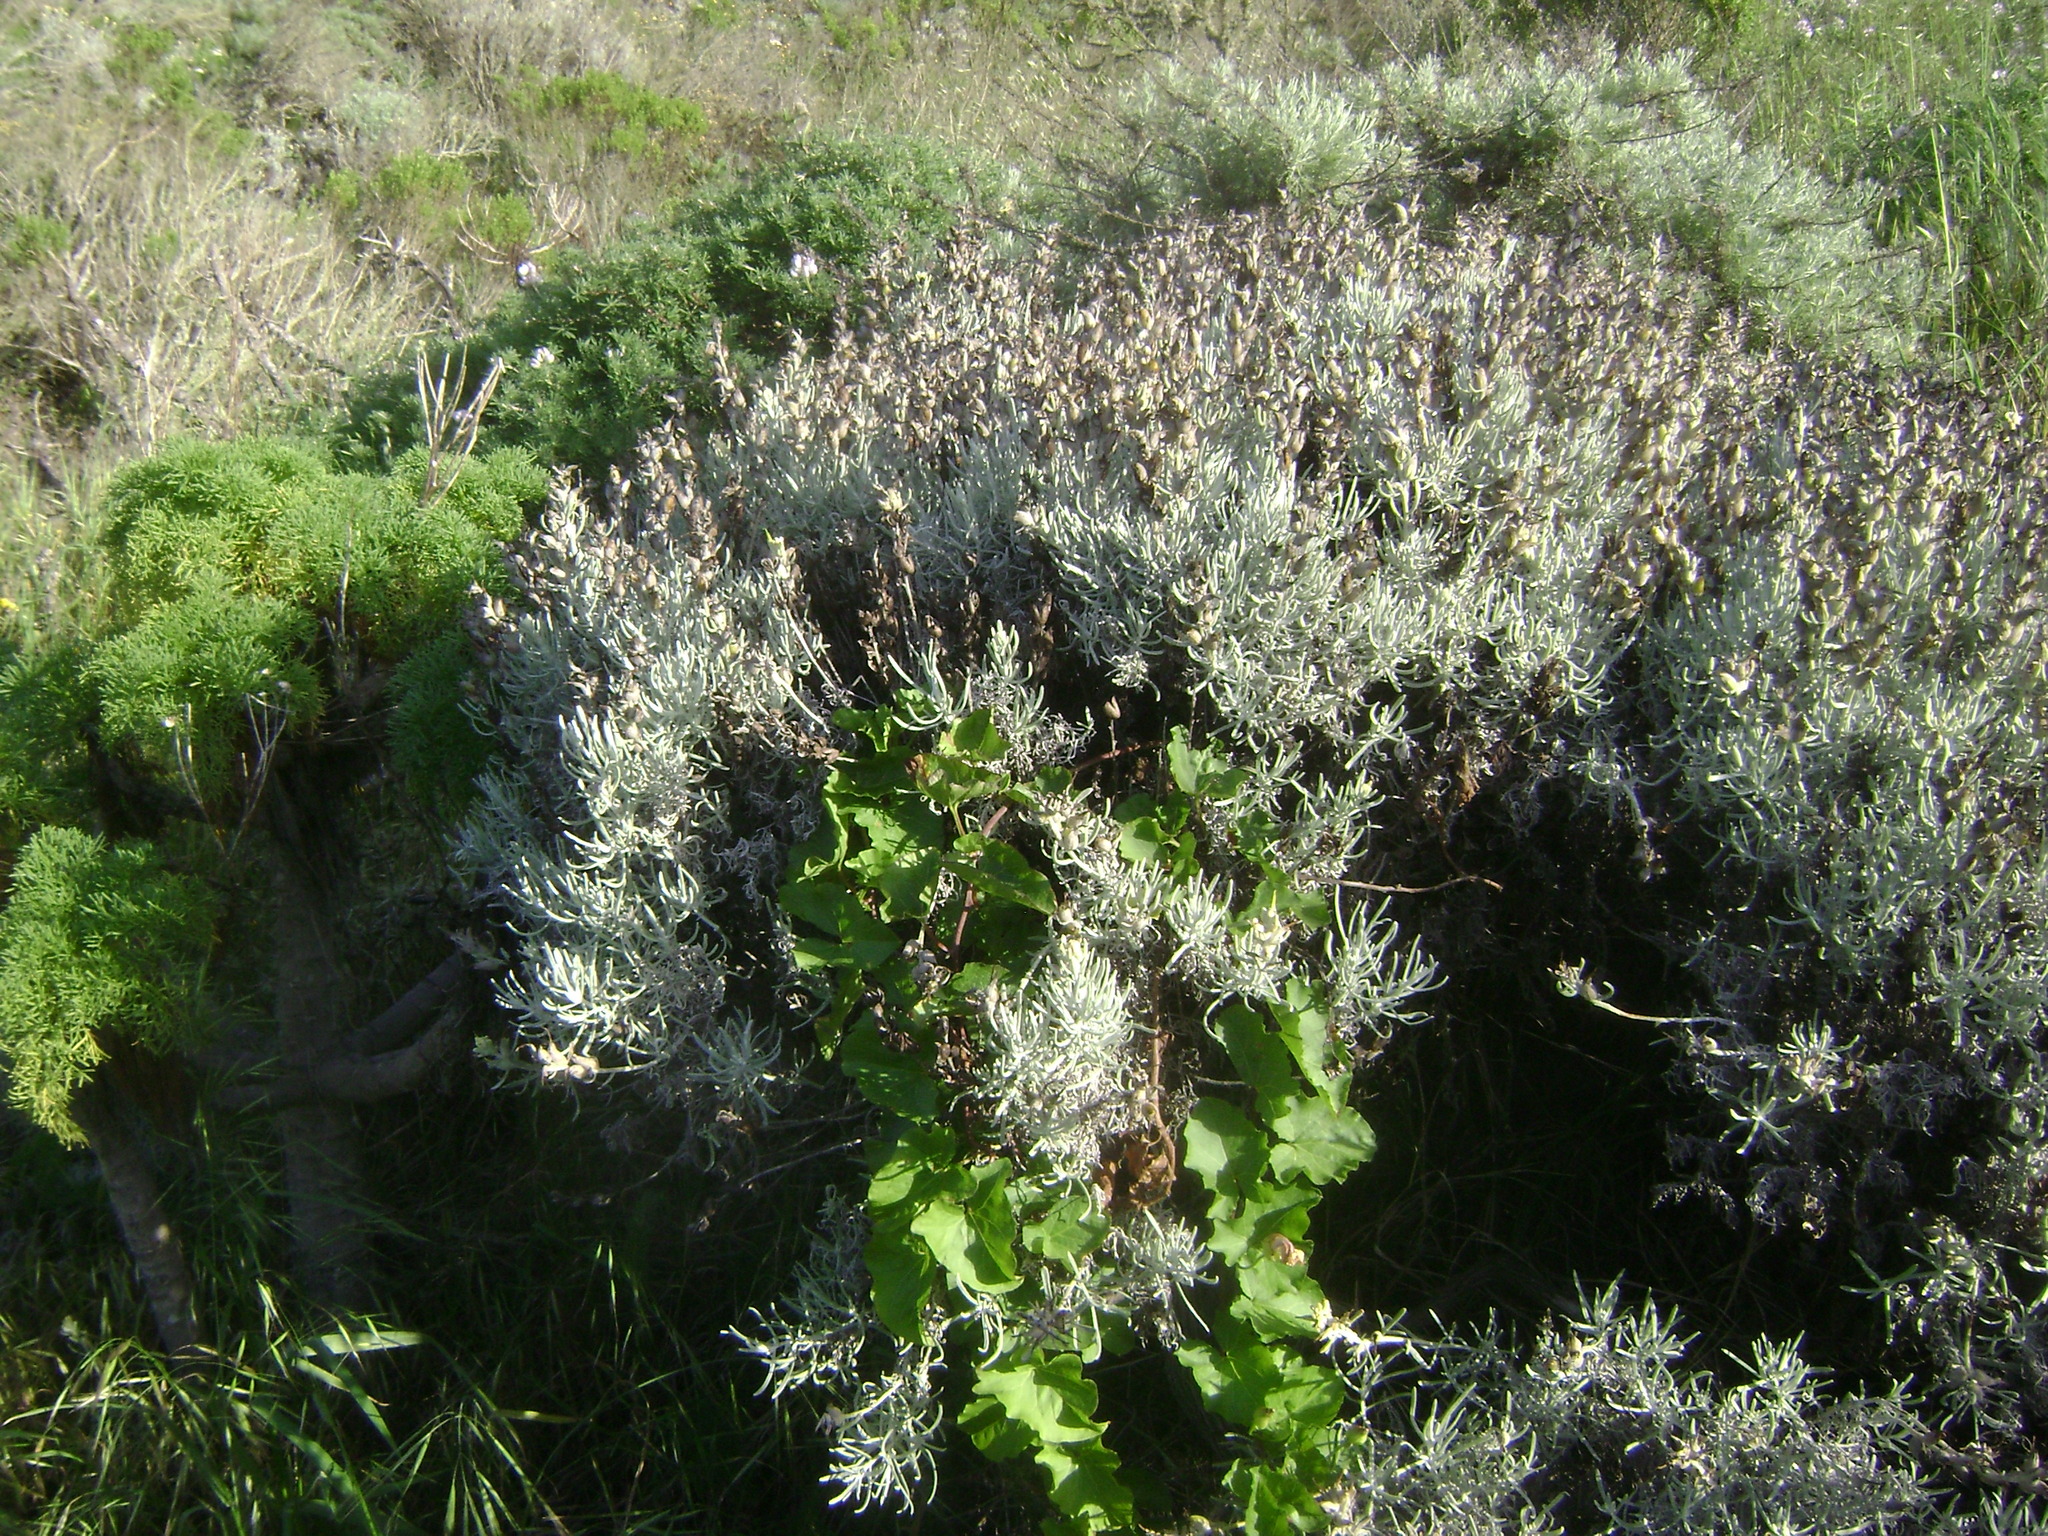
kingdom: Plantae
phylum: Tracheophyta
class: Magnoliopsida
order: Lamiales
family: Orobanchaceae
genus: Castilleja
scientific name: Castilleja hololeuca
